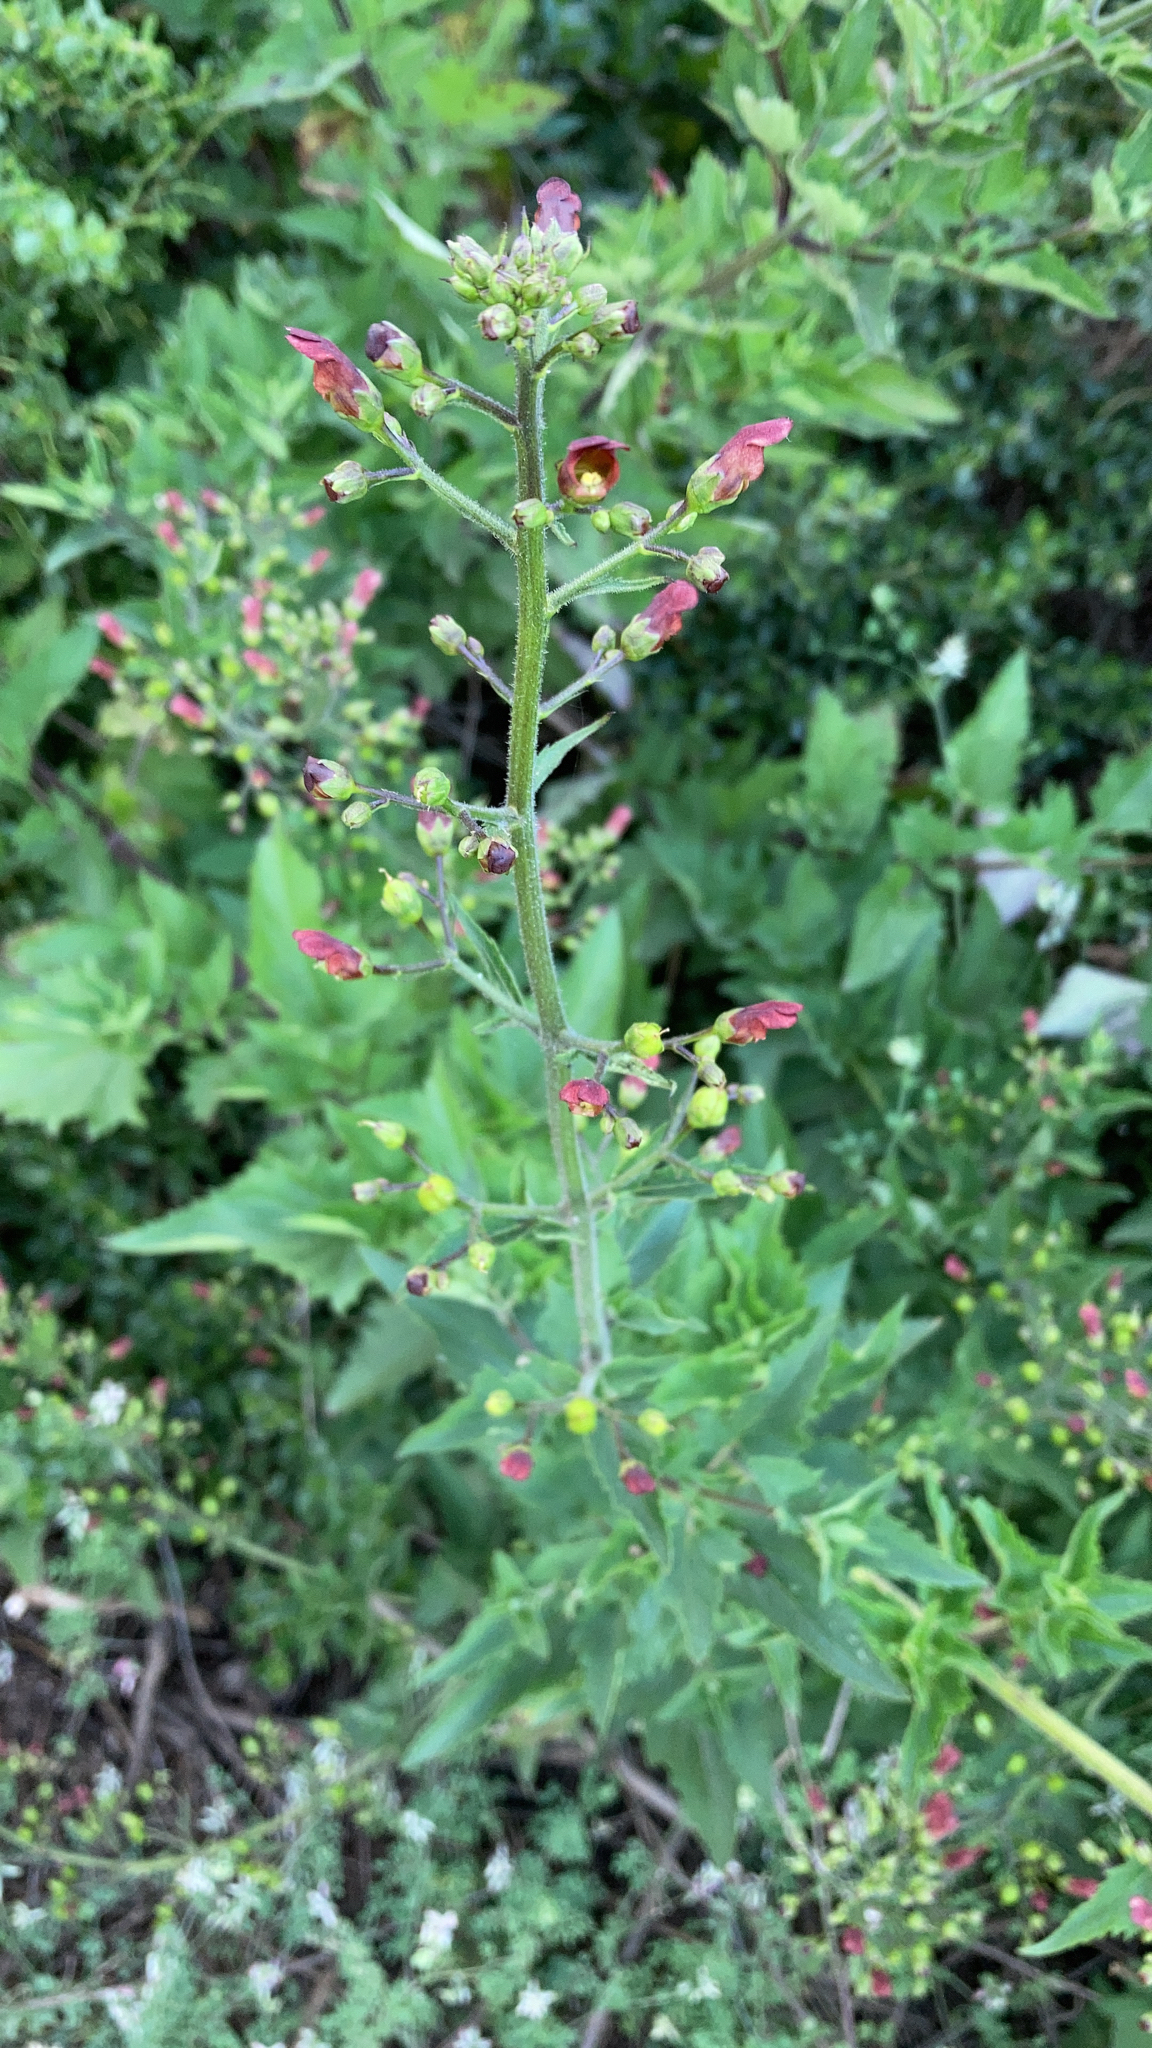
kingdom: Plantae
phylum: Tracheophyta
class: Magnoliopsida
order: Lamiales
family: Scrophulariaceae
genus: Scrophularia
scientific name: Scrophularia californica
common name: California figwort
